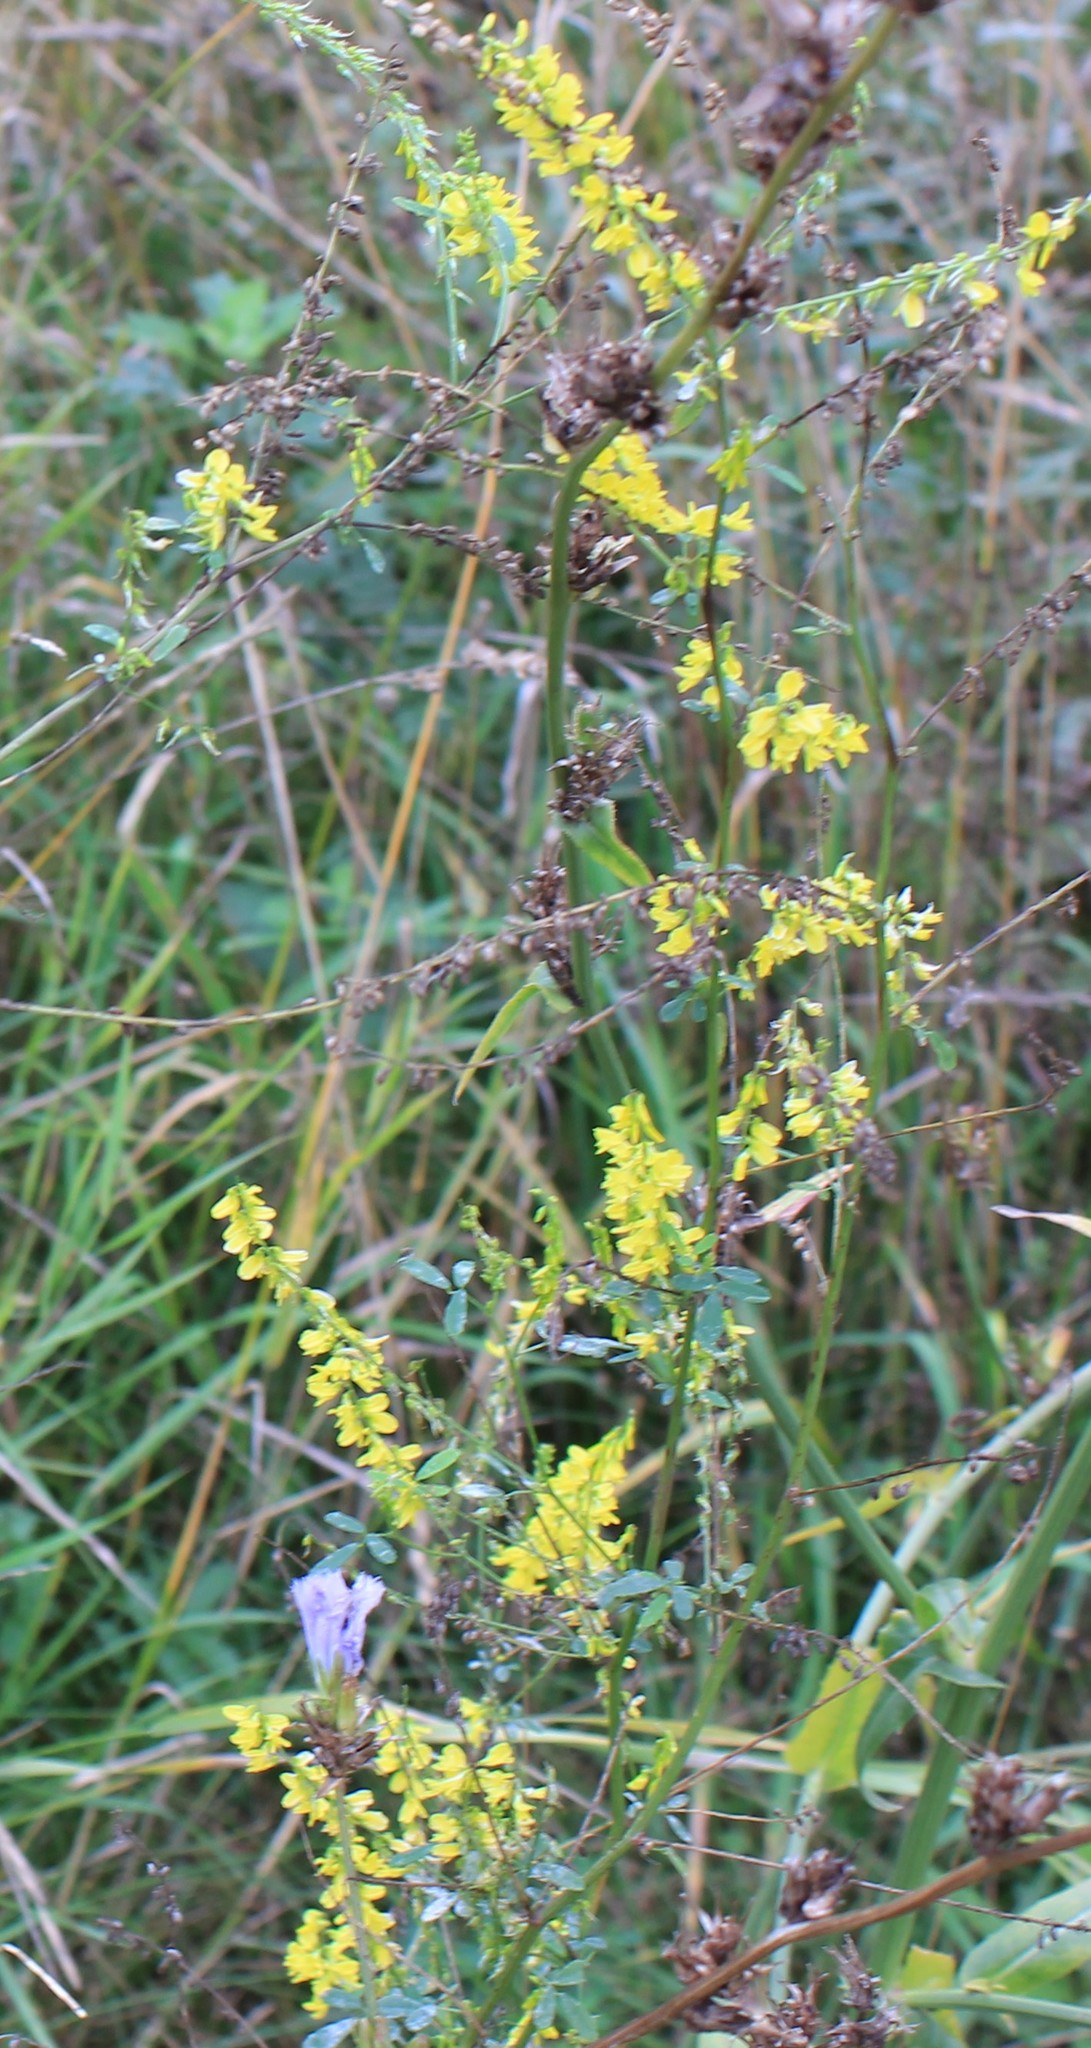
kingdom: Plantae
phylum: Tracheophyta
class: Magnoliopsida
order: Fabales
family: Fabaceae
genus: Melilotus
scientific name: Melilotus officinalis
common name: Sweetclover
